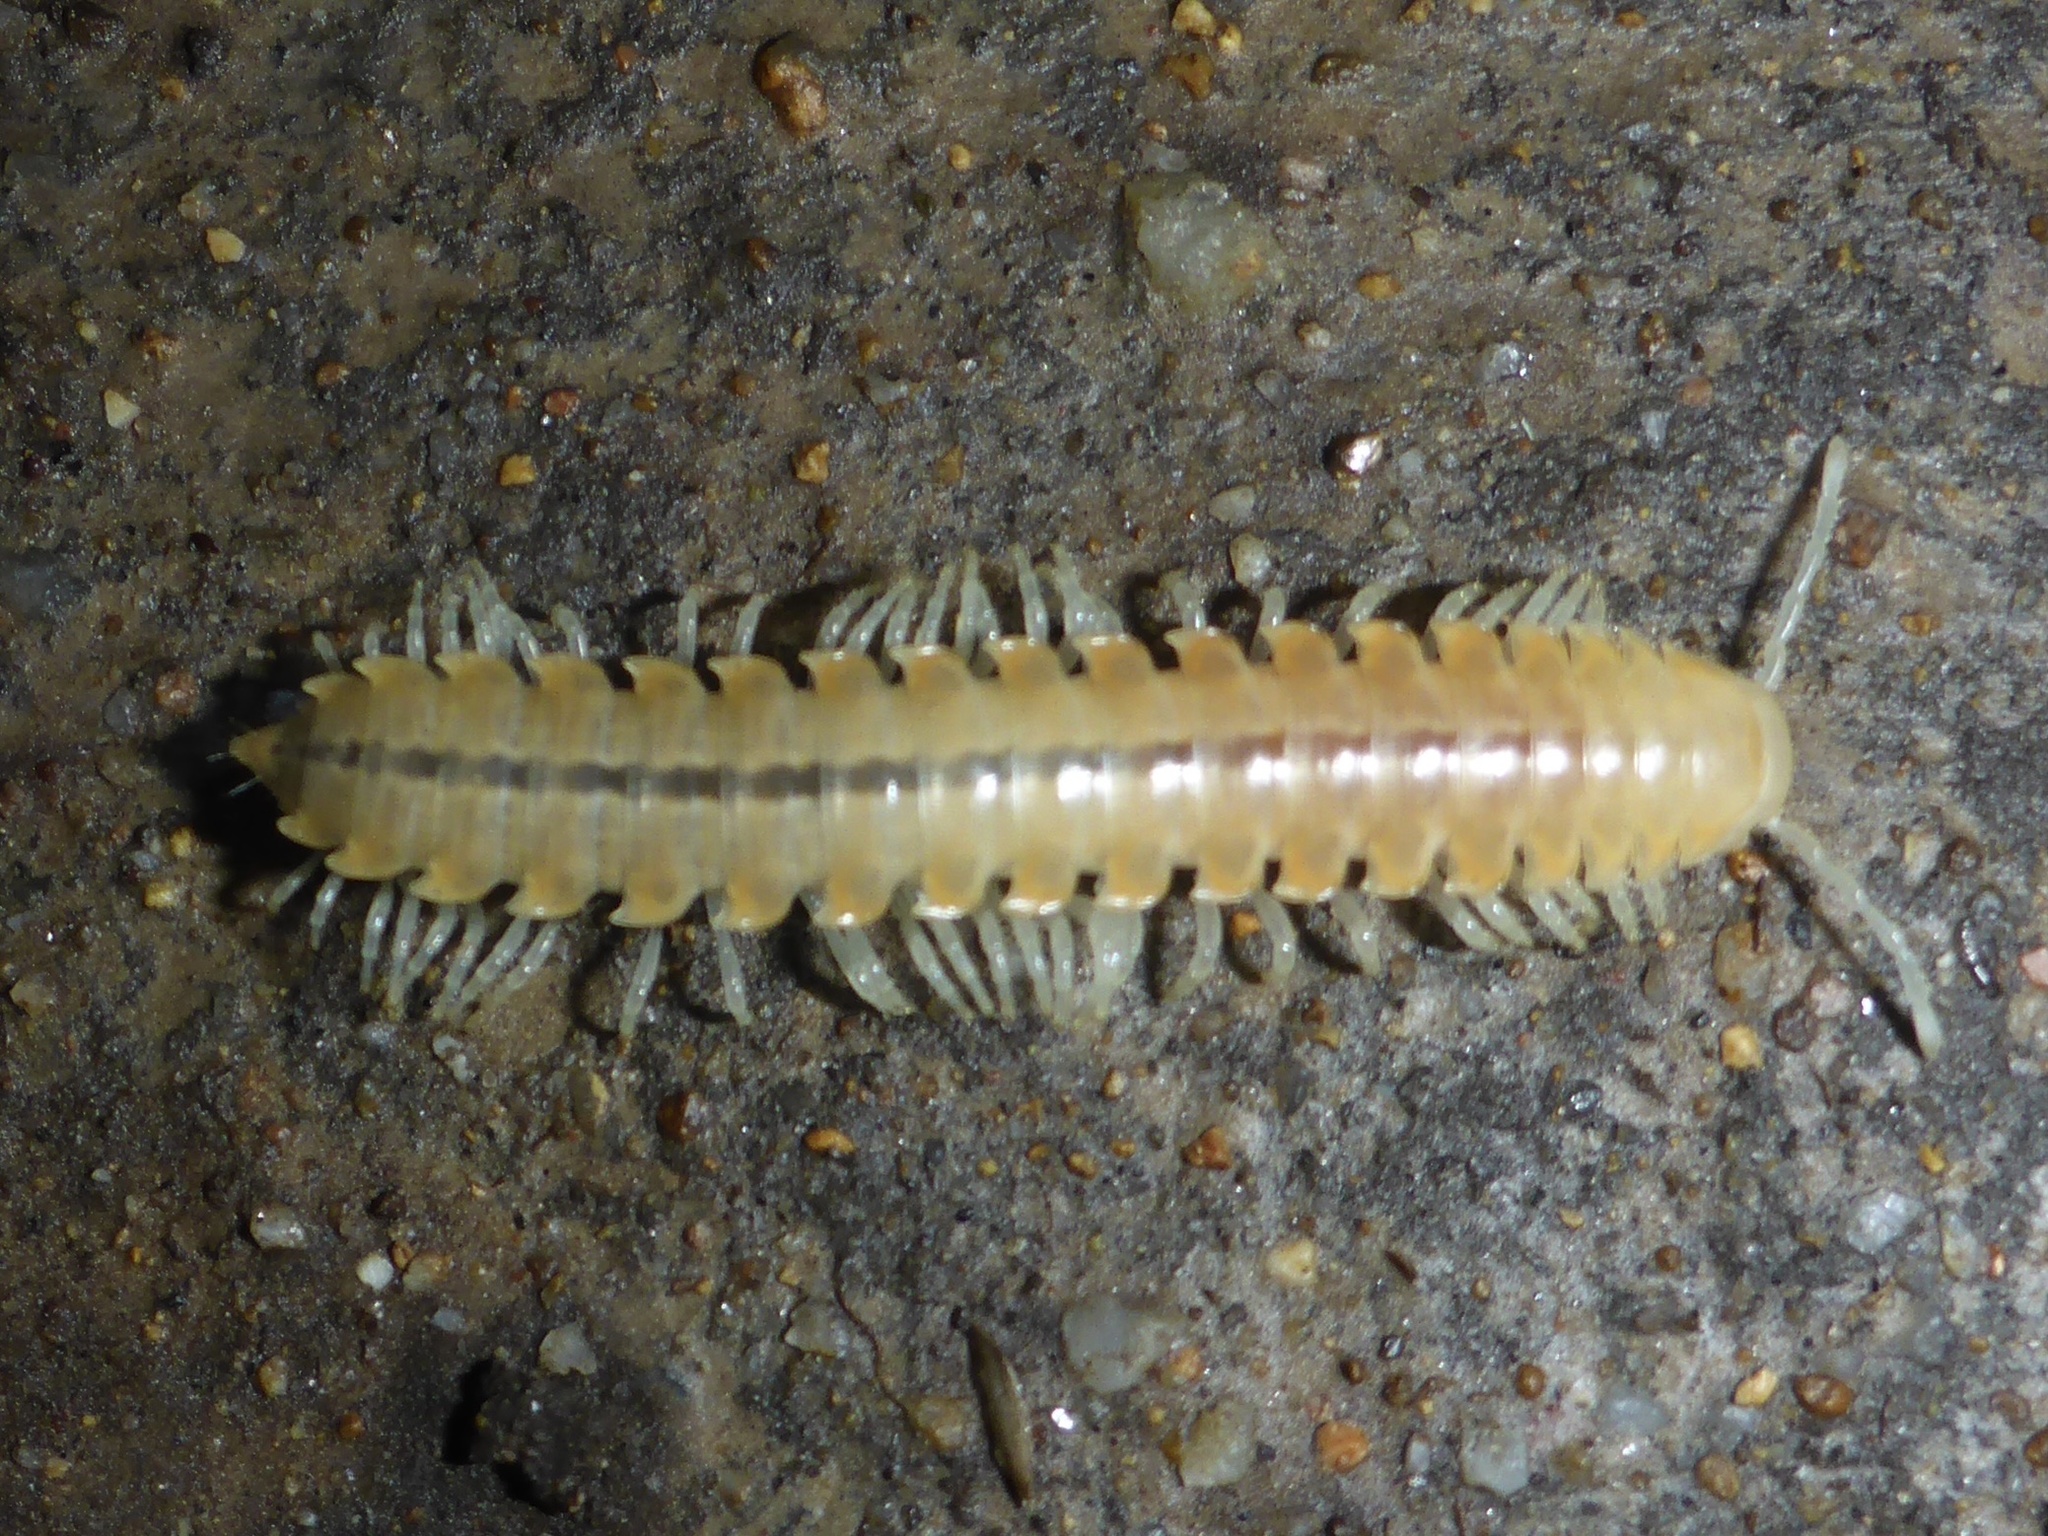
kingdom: Animalia
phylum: Arthropoda
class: Diplopoda
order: Polydesmida
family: Xystodesmidae
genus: Xystocheir
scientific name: Xystocheir dissecta
